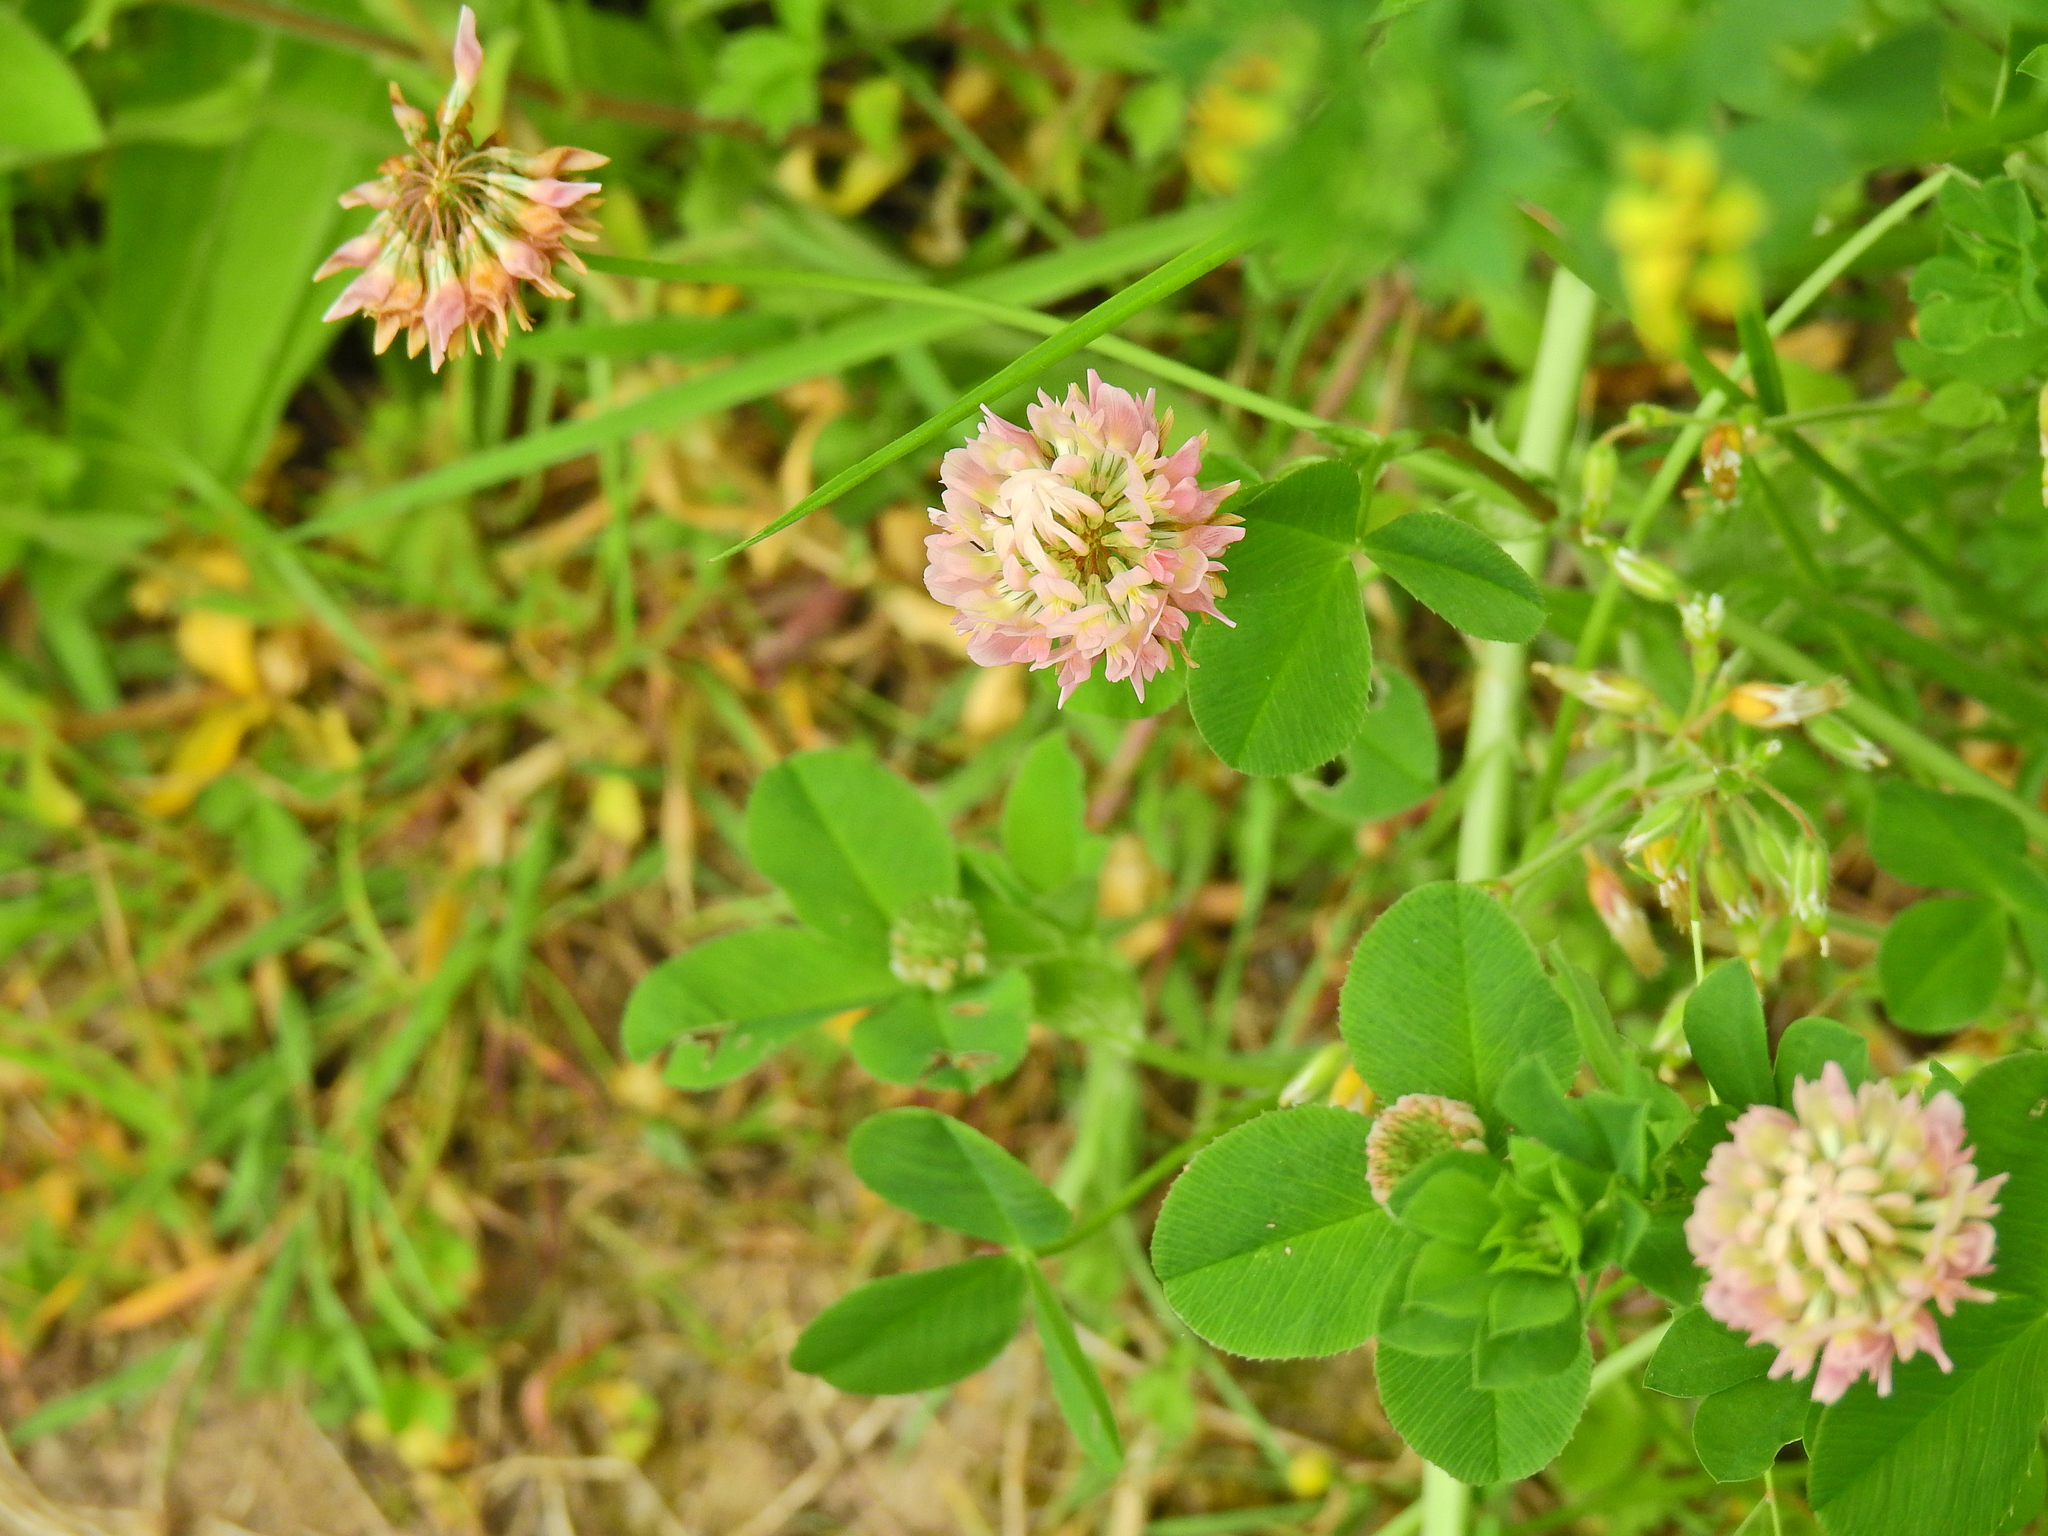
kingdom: Plantae
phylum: Tracheophyta
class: Magnoliopsida
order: Fabales
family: Fabaceae
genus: Trifolium
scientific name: Trifolium hybridum
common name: Alsike clover
